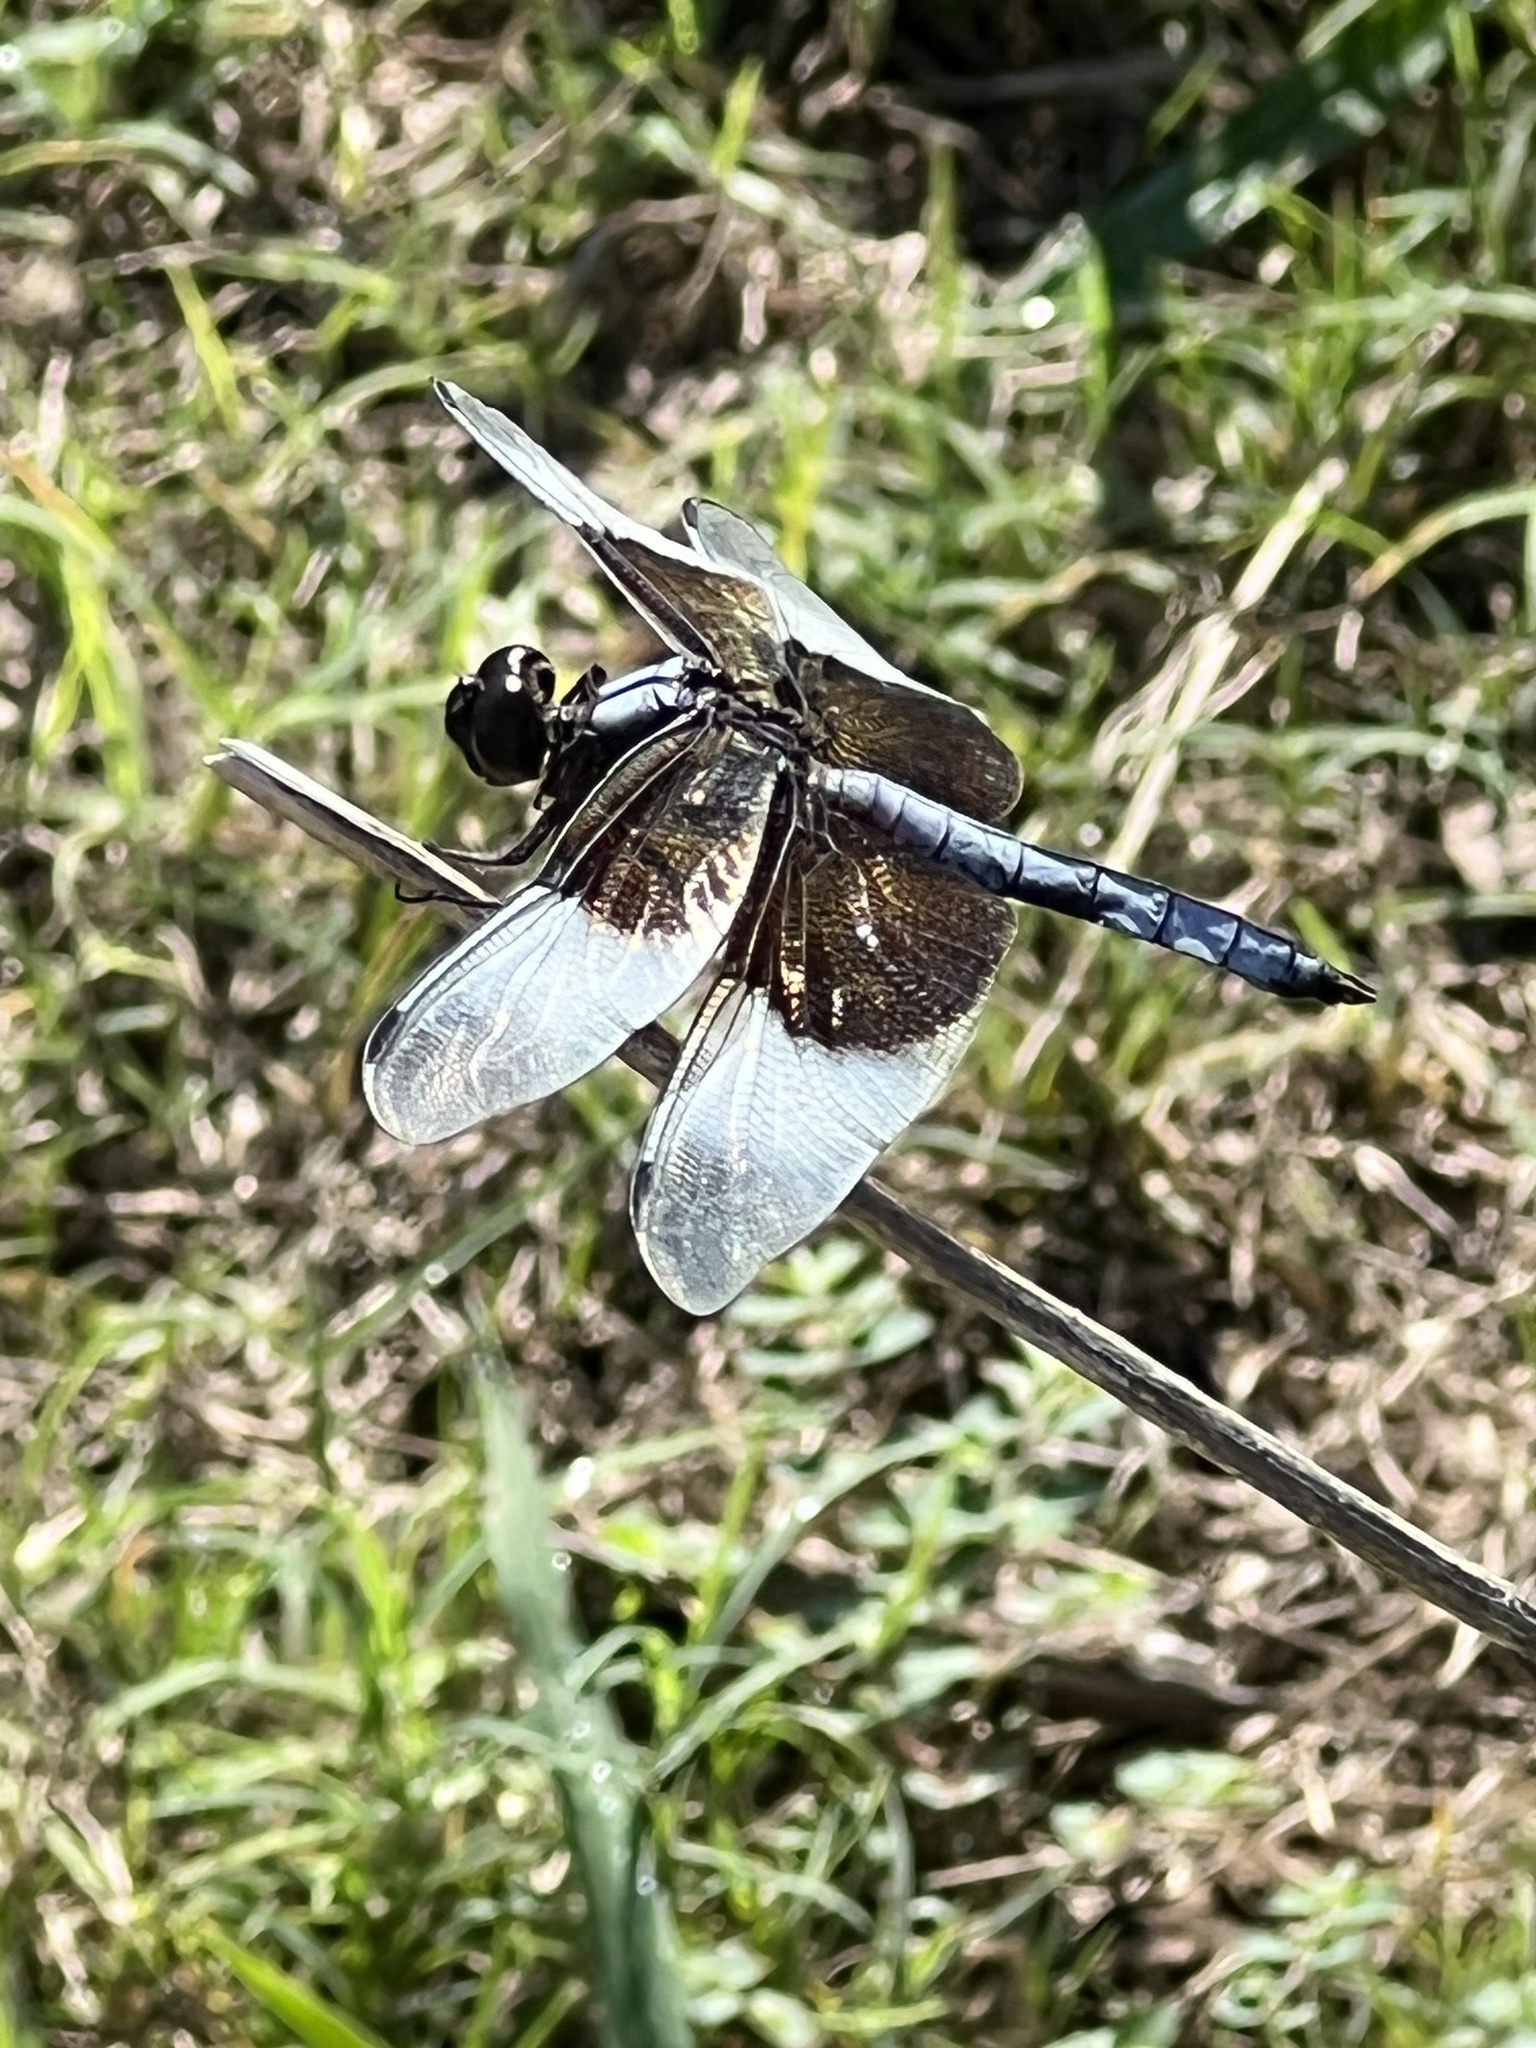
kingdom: Animalia
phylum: Arthropoda
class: Insecta
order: Odonata
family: Libellulidae
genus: Libellula
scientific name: Libellula luctuosa
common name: Widow skimmer
